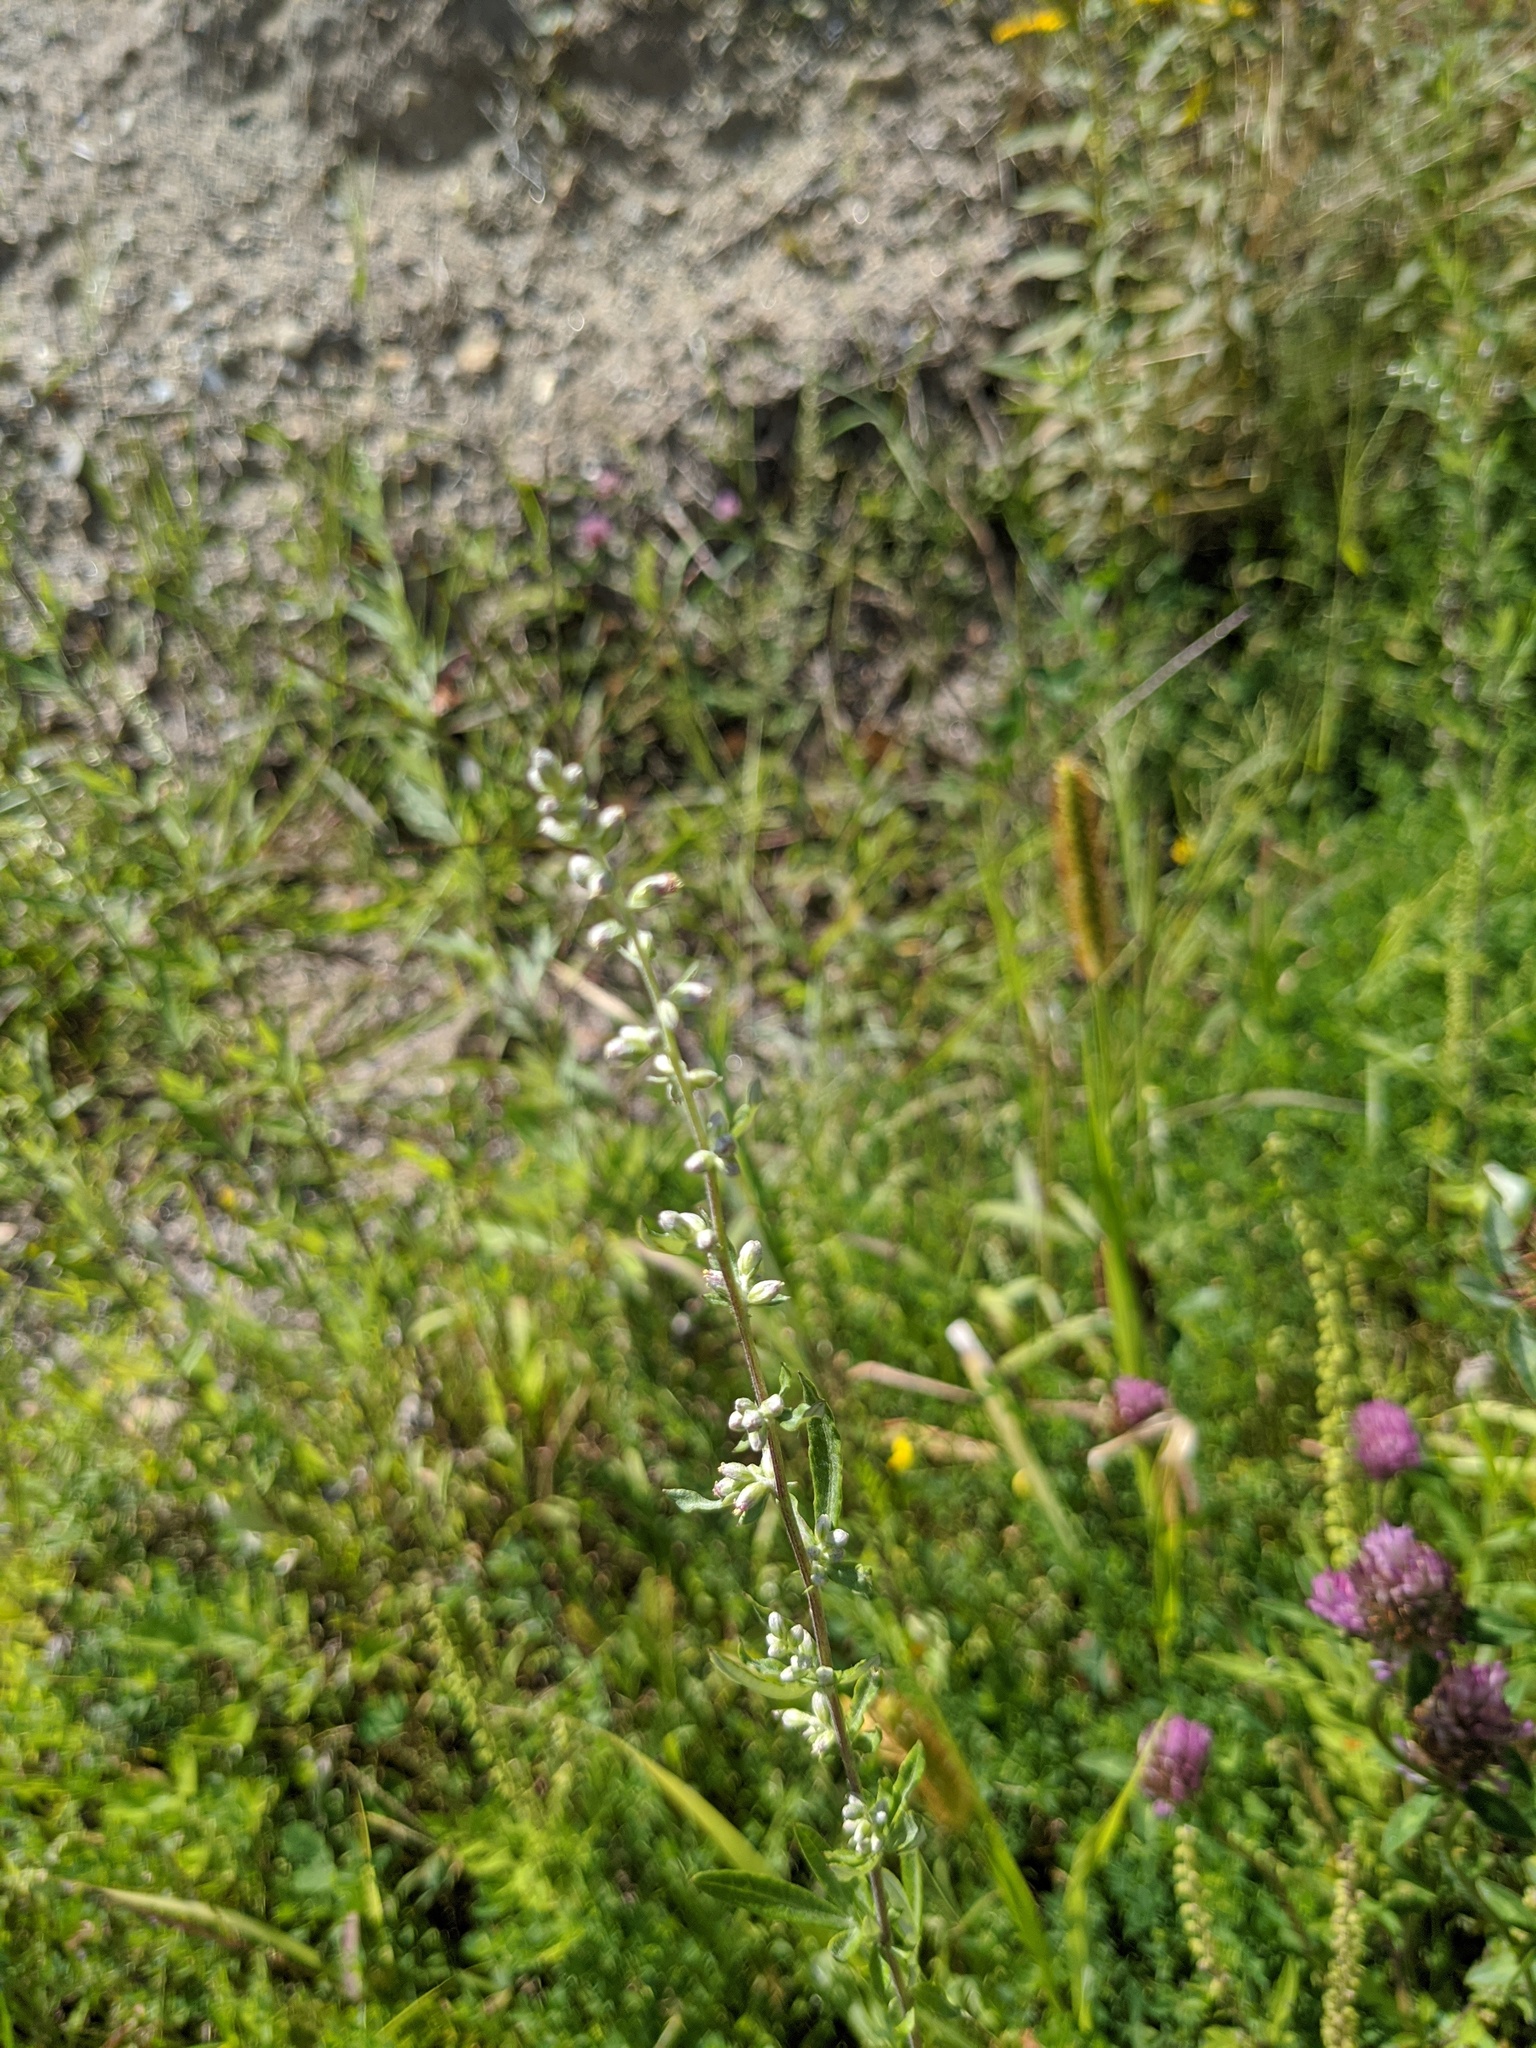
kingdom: Plantae
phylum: Tracheophyta
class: Magnoliopsida
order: Asterales
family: Asteraceae
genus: Artemisia
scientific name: Artemisia vulgaris
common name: Mugwort
